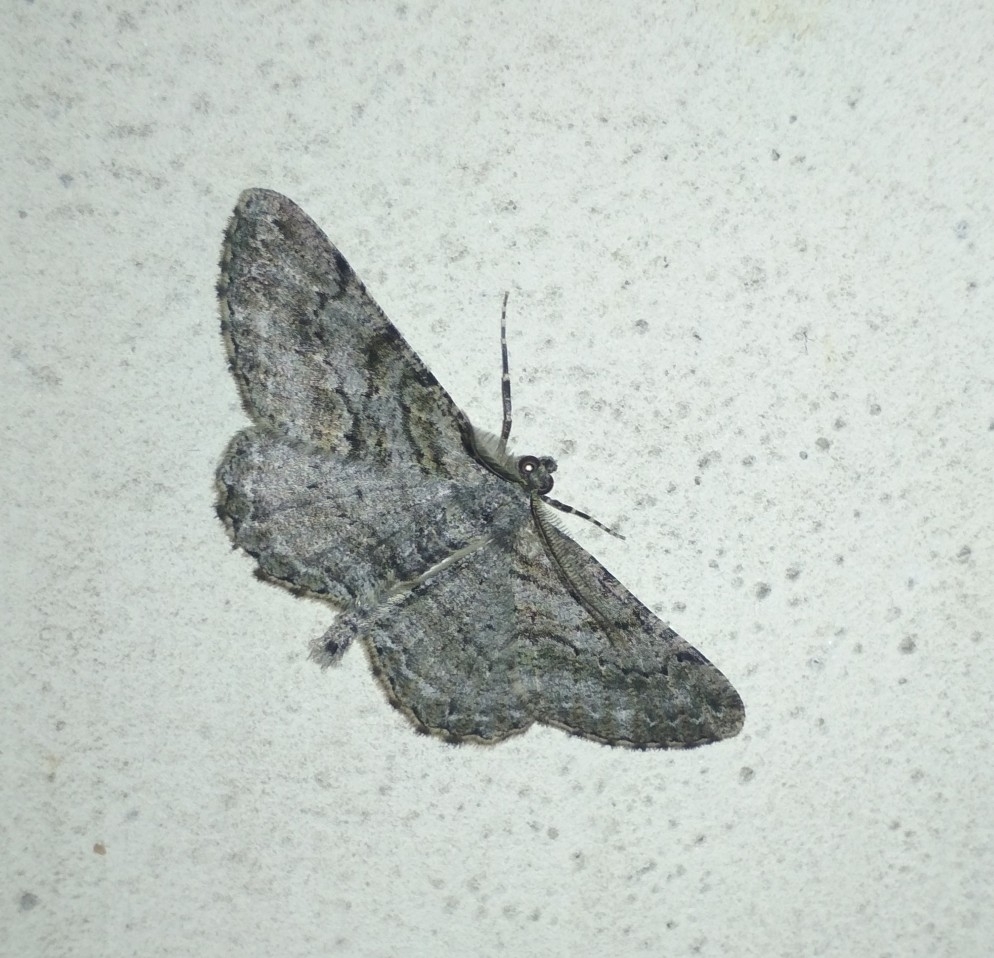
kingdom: Animalia
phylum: Arthropoda
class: Insecta
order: Lepidoptera
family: Geometridae
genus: Peribatodes
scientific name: Peribatodes rhomboidaria
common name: Willow beauty
